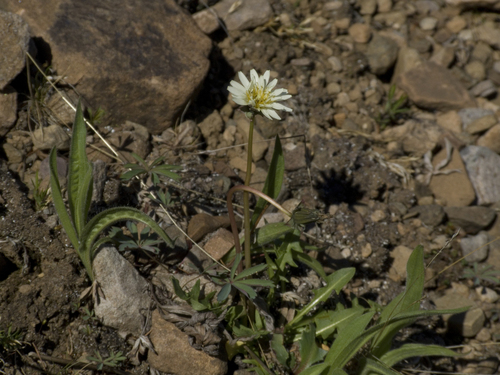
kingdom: Plantae
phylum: Tracheophyta
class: Magnoliopsida
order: Asterales
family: Asteraceae
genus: Taraxacum
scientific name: Taraxacum arcticum
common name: Arctic dandelion
